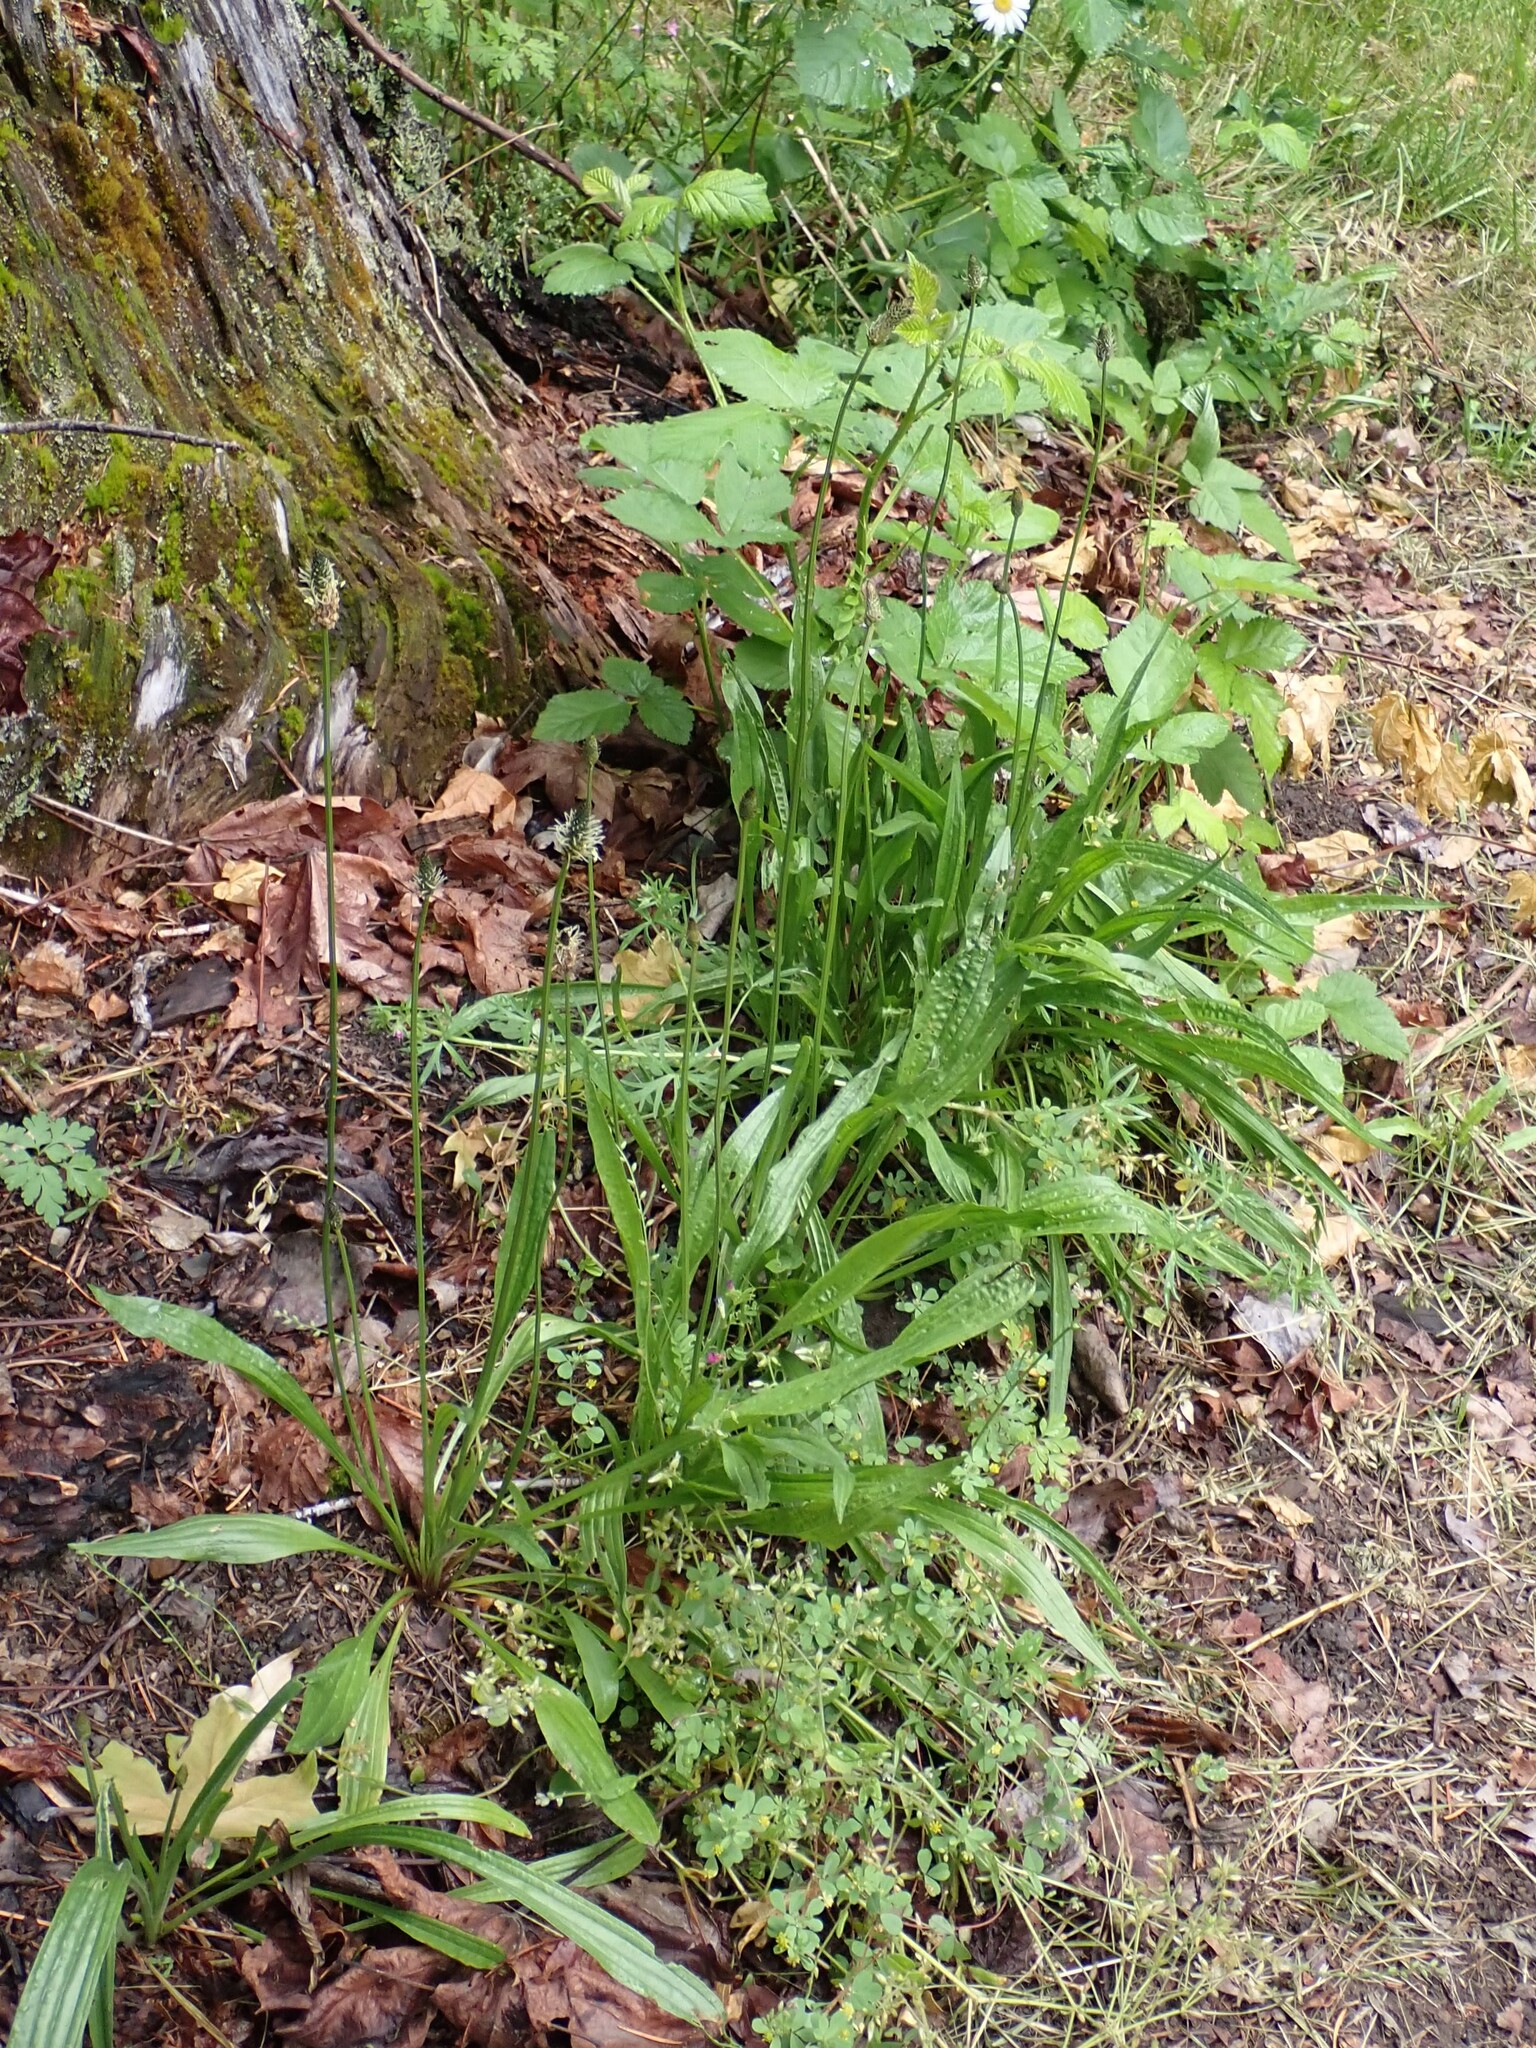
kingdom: Plantae
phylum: Tracheophyta
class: Magnoliopsida
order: Lamiales
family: Plantaginaceae
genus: Plantago
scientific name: Plantago lanceolata
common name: Ribwort plantain
